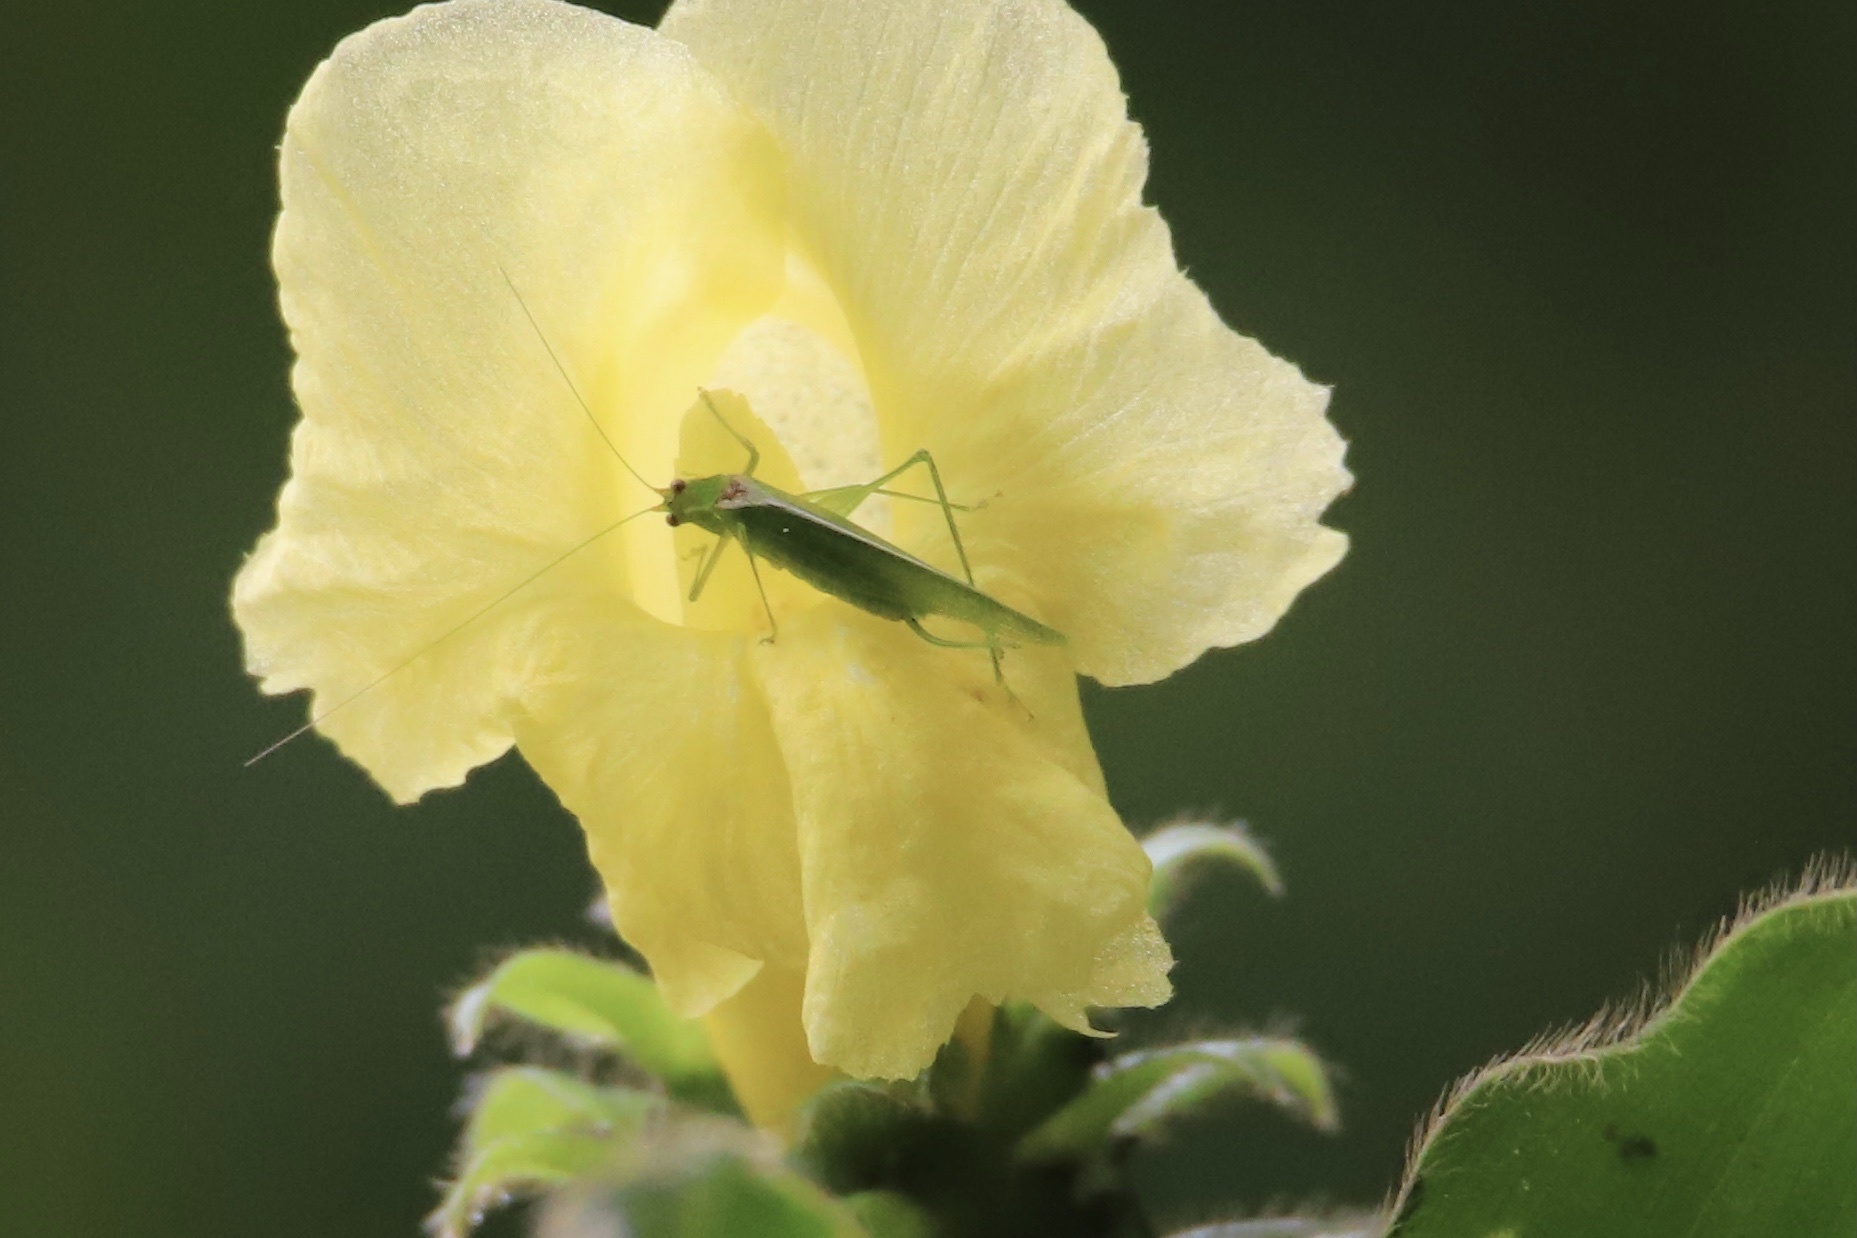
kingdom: Animalia
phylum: Arthropoda
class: Insecta
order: Orthoptera
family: Tettigoniidae
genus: Anaulacomera
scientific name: Anaulacomera furcata
